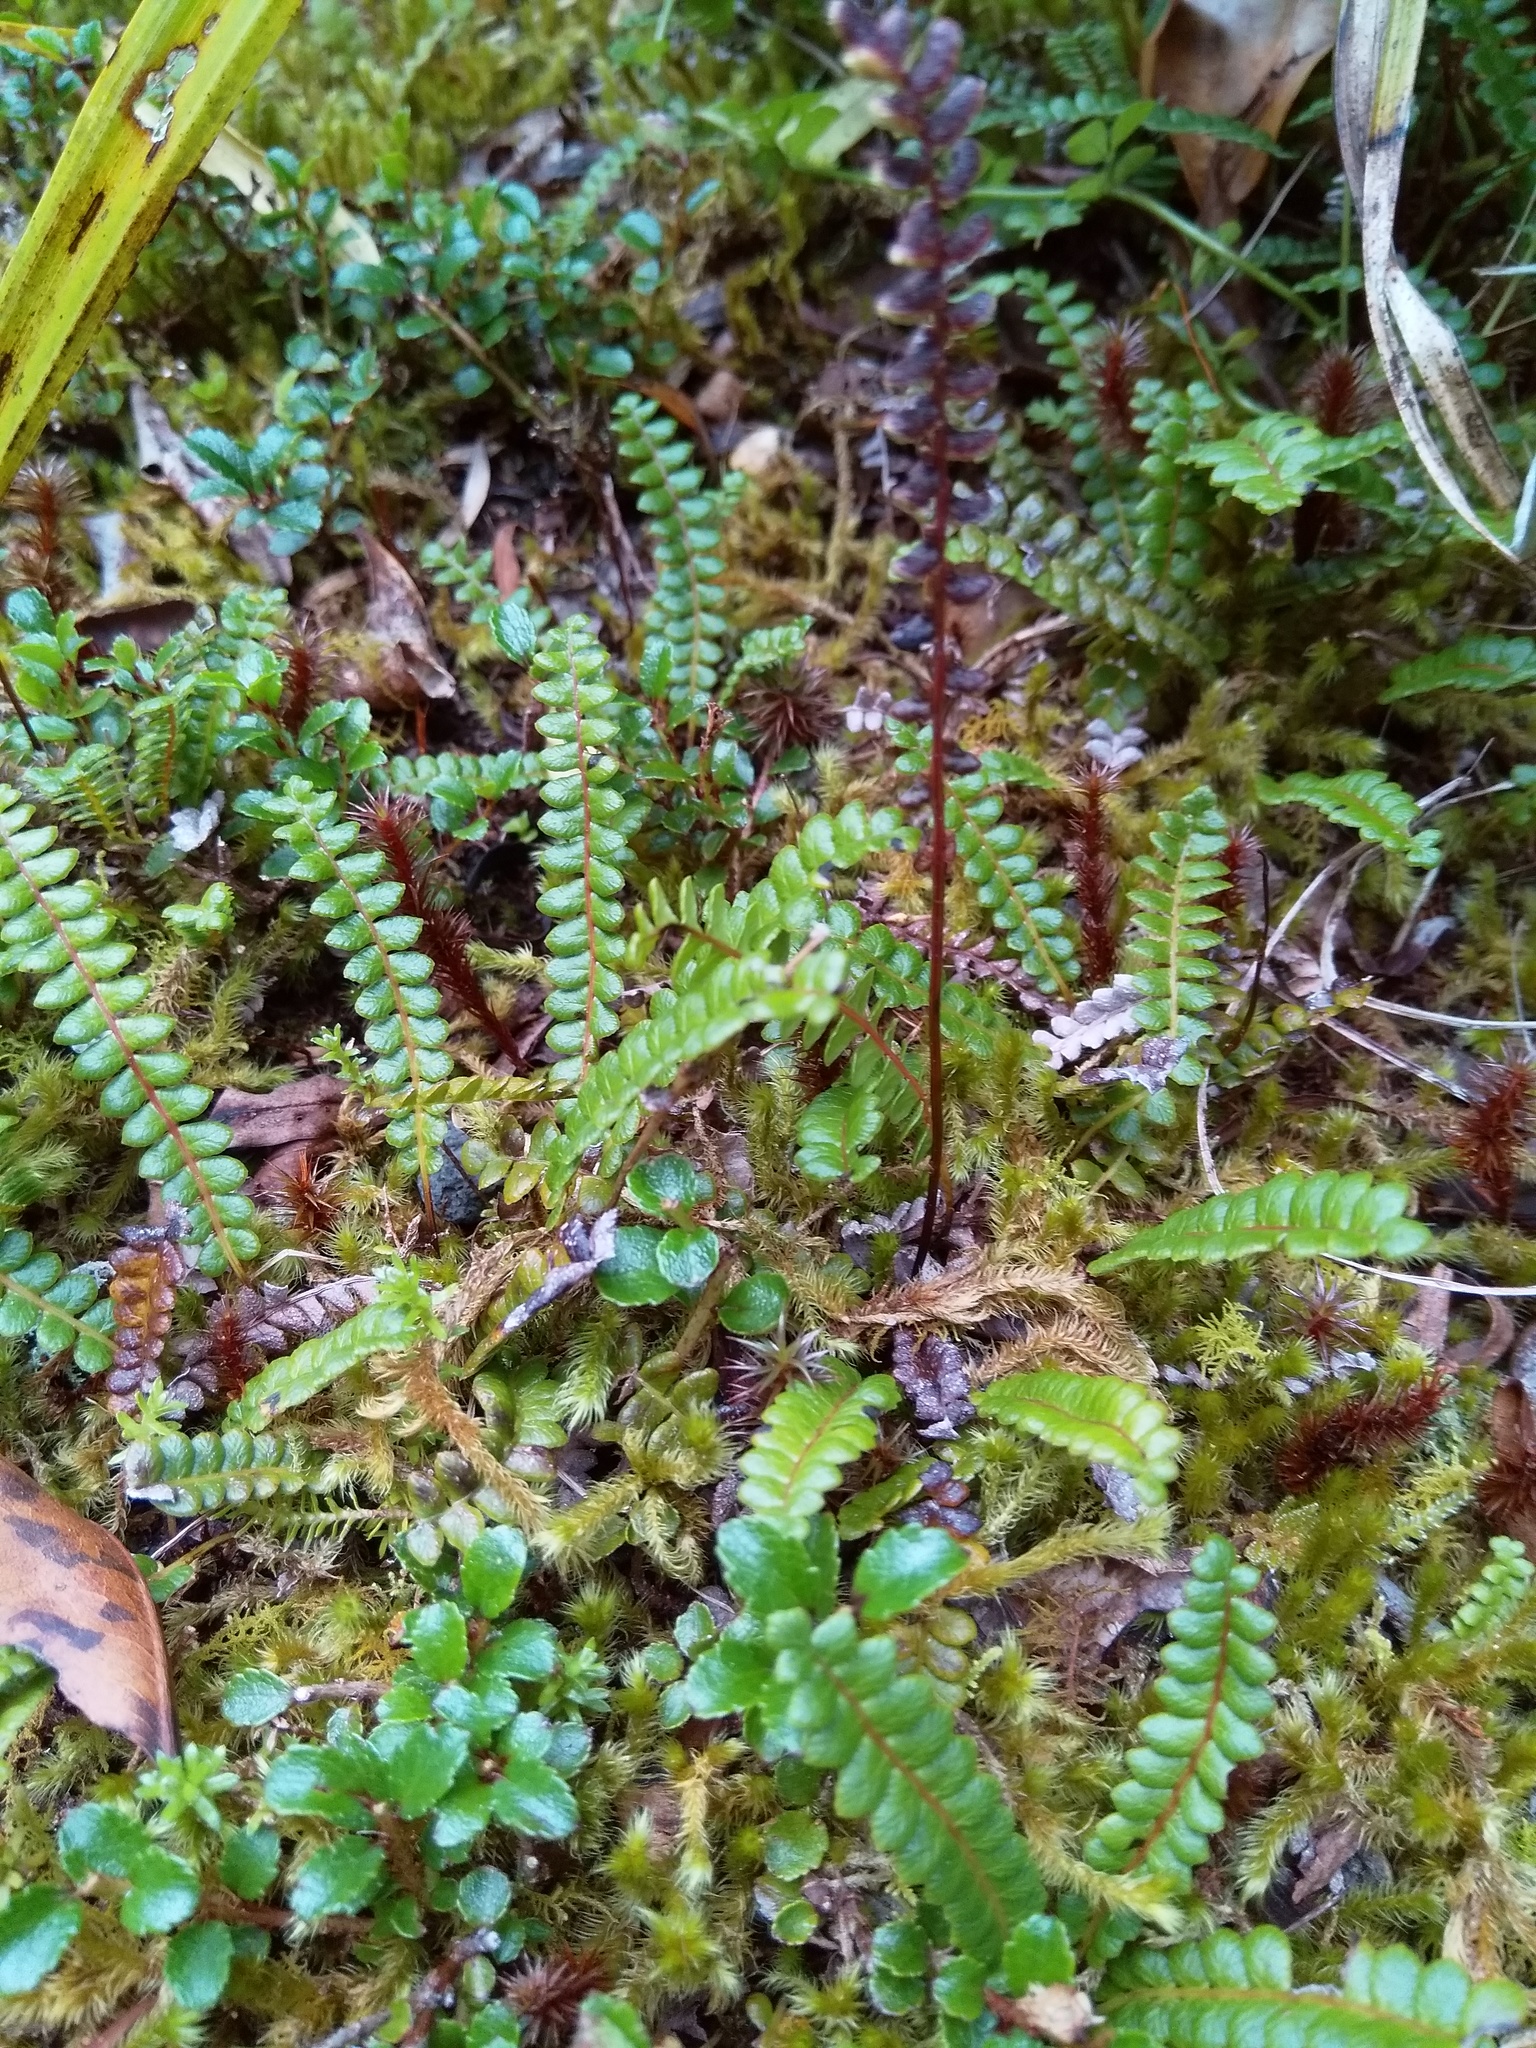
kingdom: Plantae
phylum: Tracheophyta
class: Polypodiopsida
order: Polypodiales
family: Blechnaceae
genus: Austroblechnum
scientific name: Austroblechnum penna-marina
